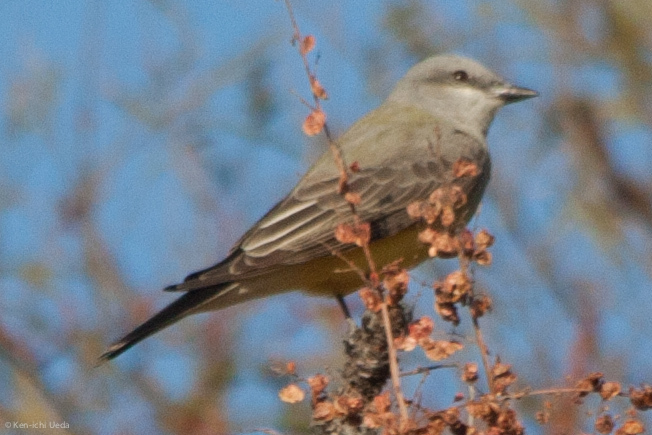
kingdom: Animalia
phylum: Chordata
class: Aves
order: Passeriformes
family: Tyrannidae
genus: Tyrannus
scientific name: Tyrannus verticalis
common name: Western kingbird
